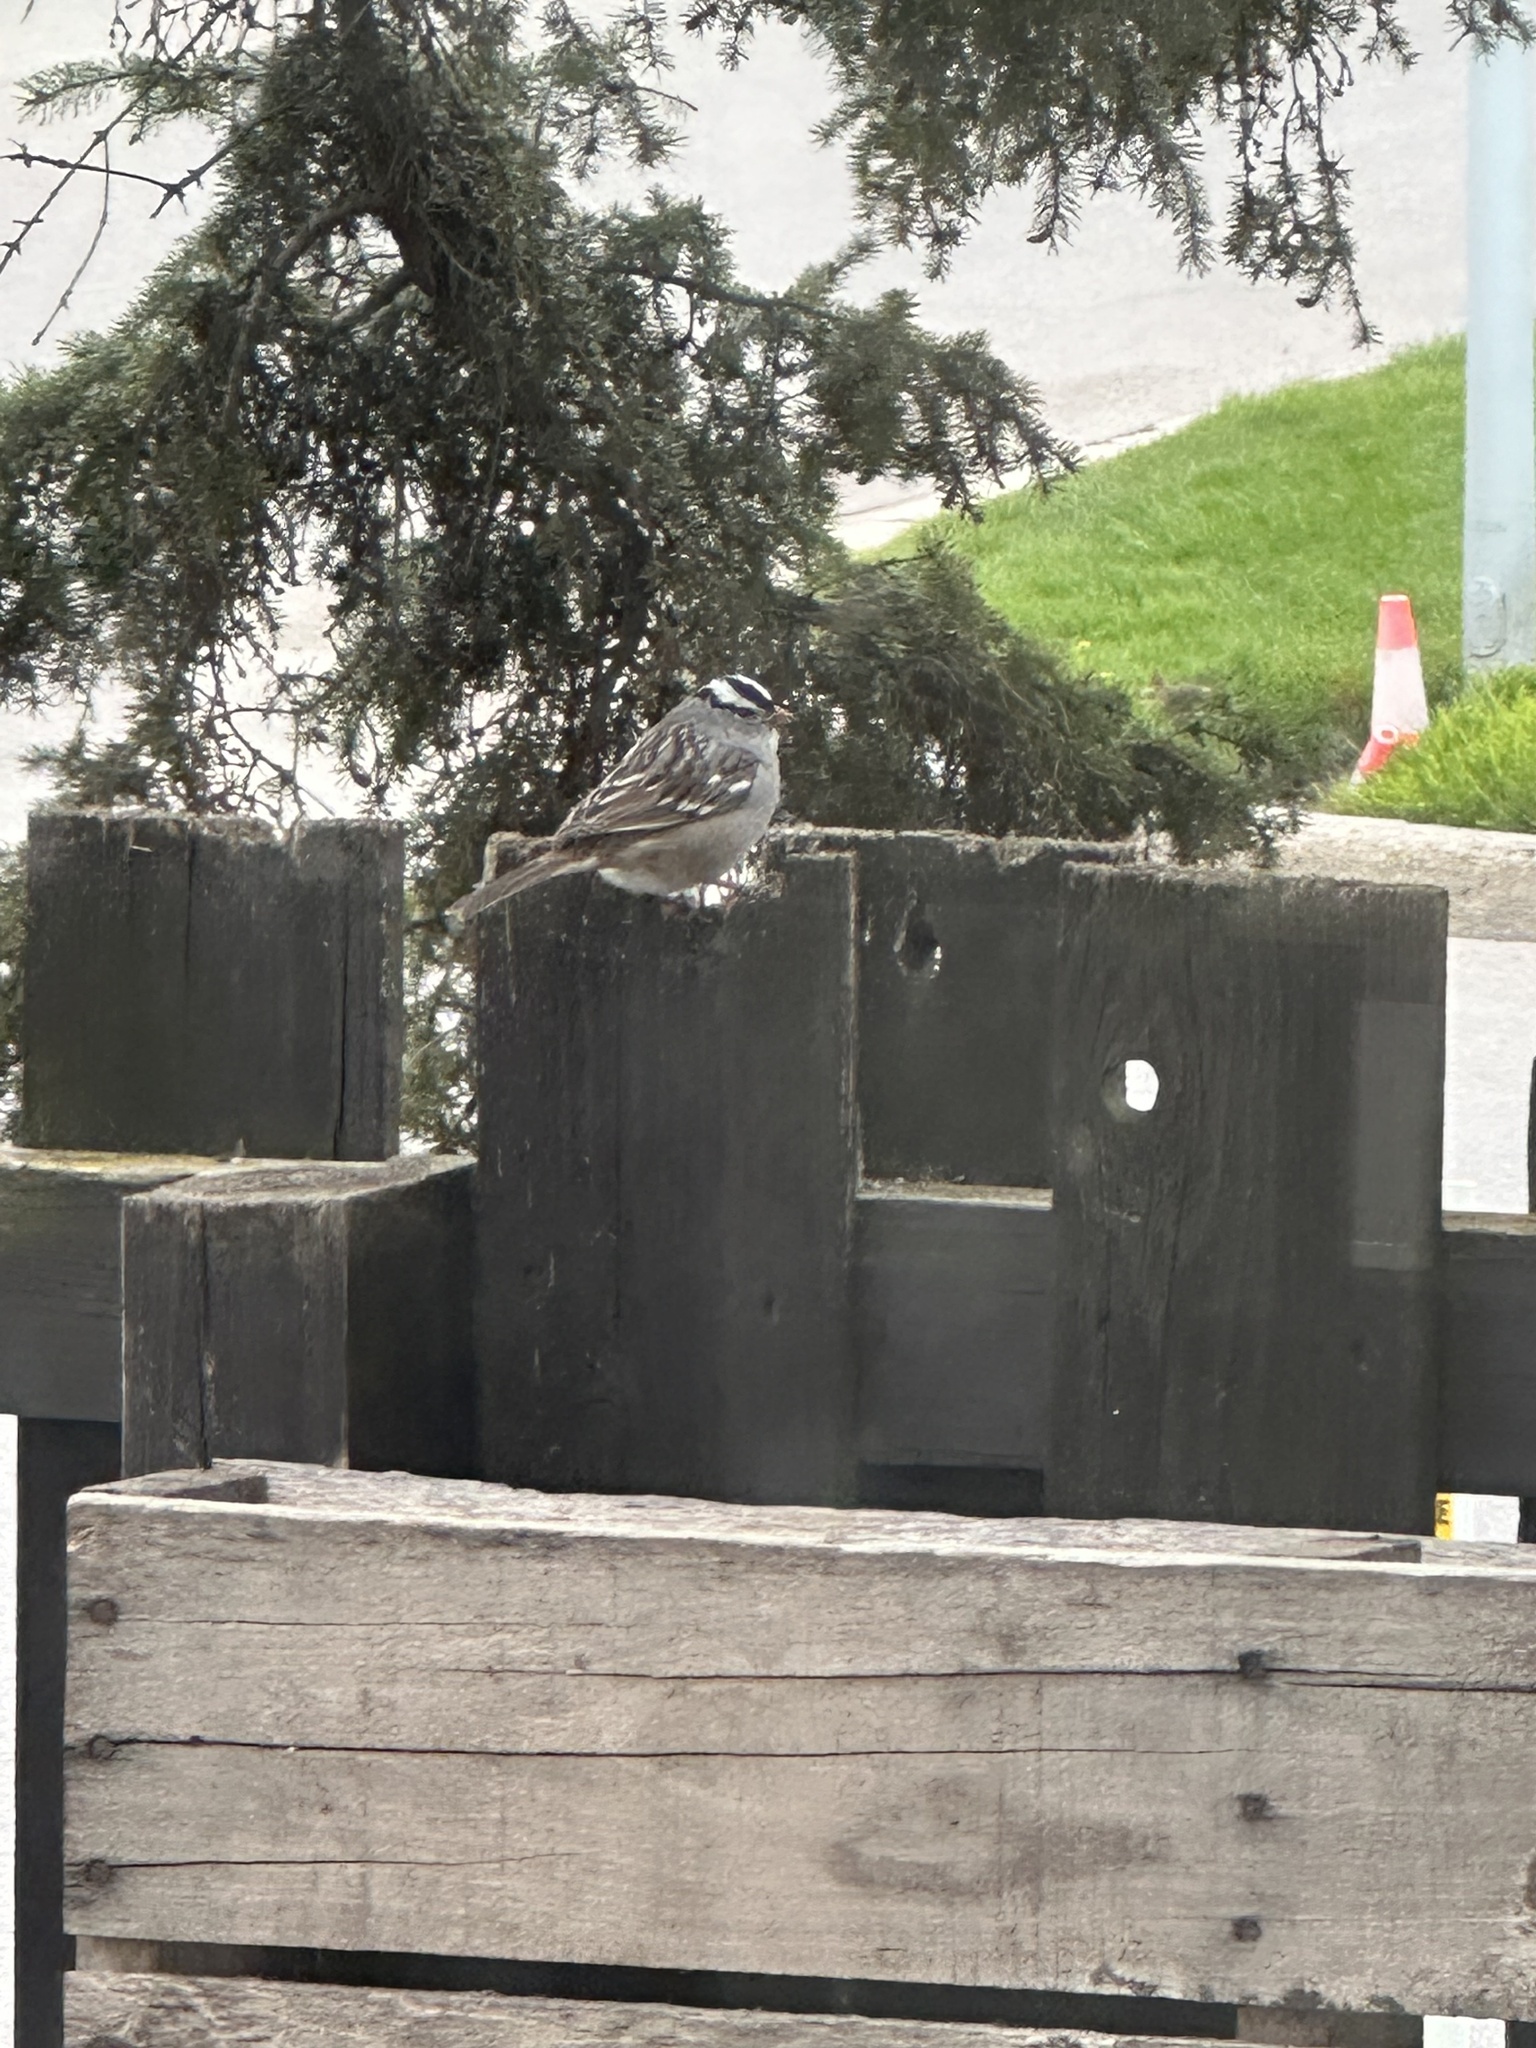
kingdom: Animalia
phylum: Chordata
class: Aves
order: Passeriformes
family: Passerellidae
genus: Zonotrichia
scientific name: Zonotrichia leucophrys
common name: White-crowned sparrow
